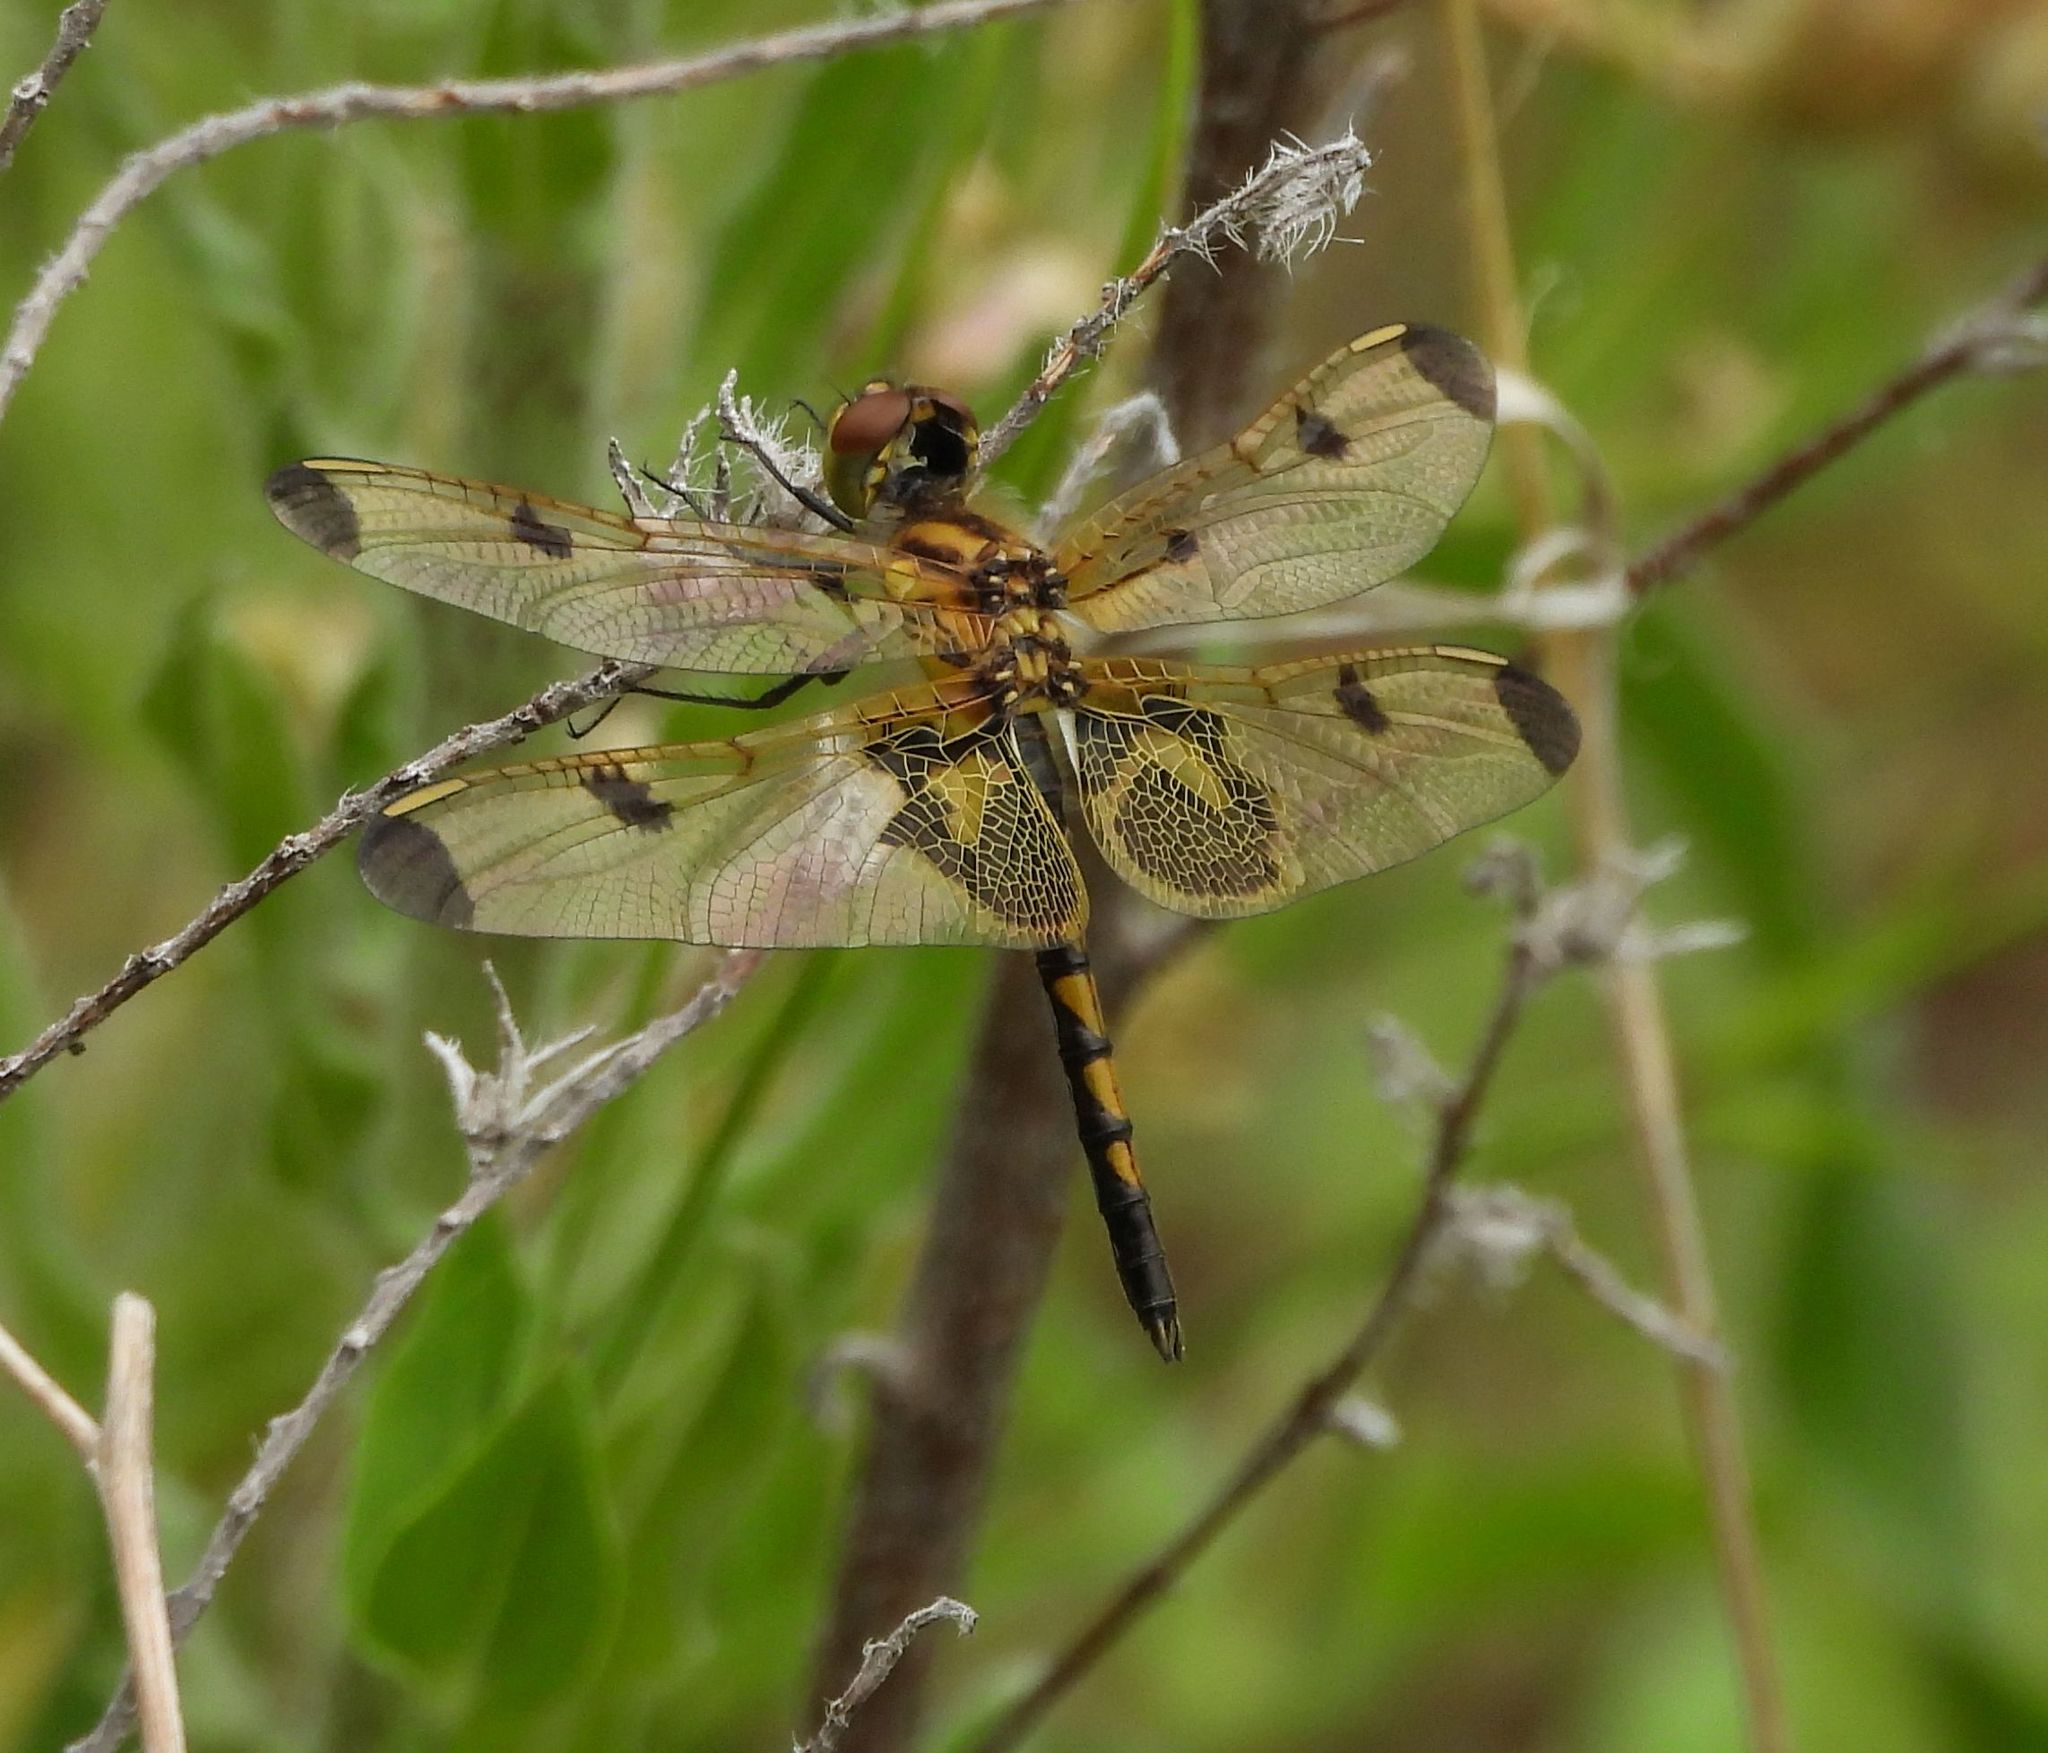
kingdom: Animalia
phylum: Arthropoda
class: Insecta
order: Odonata
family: Libellulidae
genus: Celithemis
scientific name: Celithemis elisa
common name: Calico pennant
